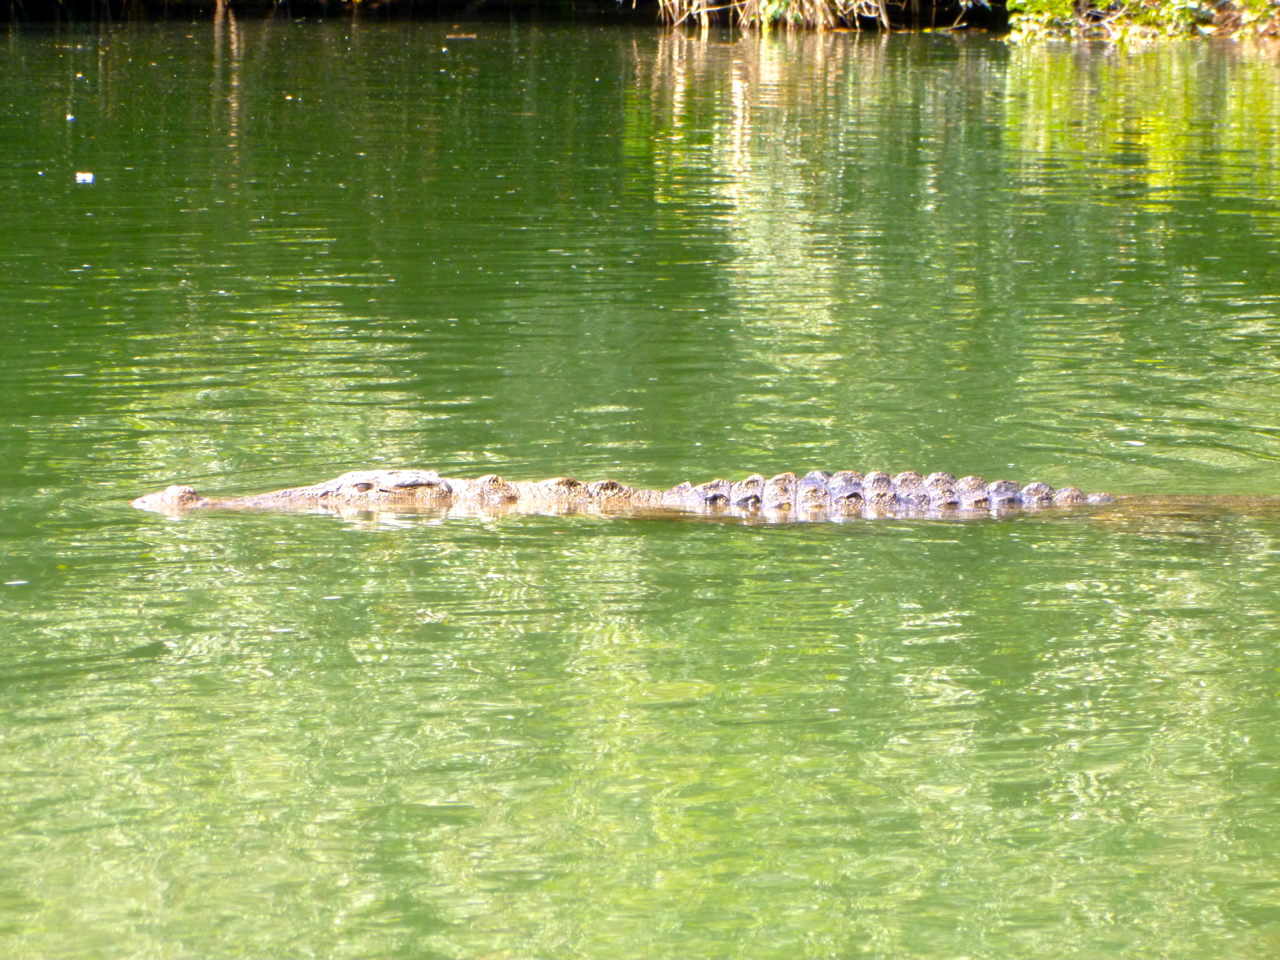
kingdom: Animalia
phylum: Chordata
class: Crocodylia
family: Crocodylidae
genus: Crocodylus
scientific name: Crocodylus palustris
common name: Mugger crocodile
